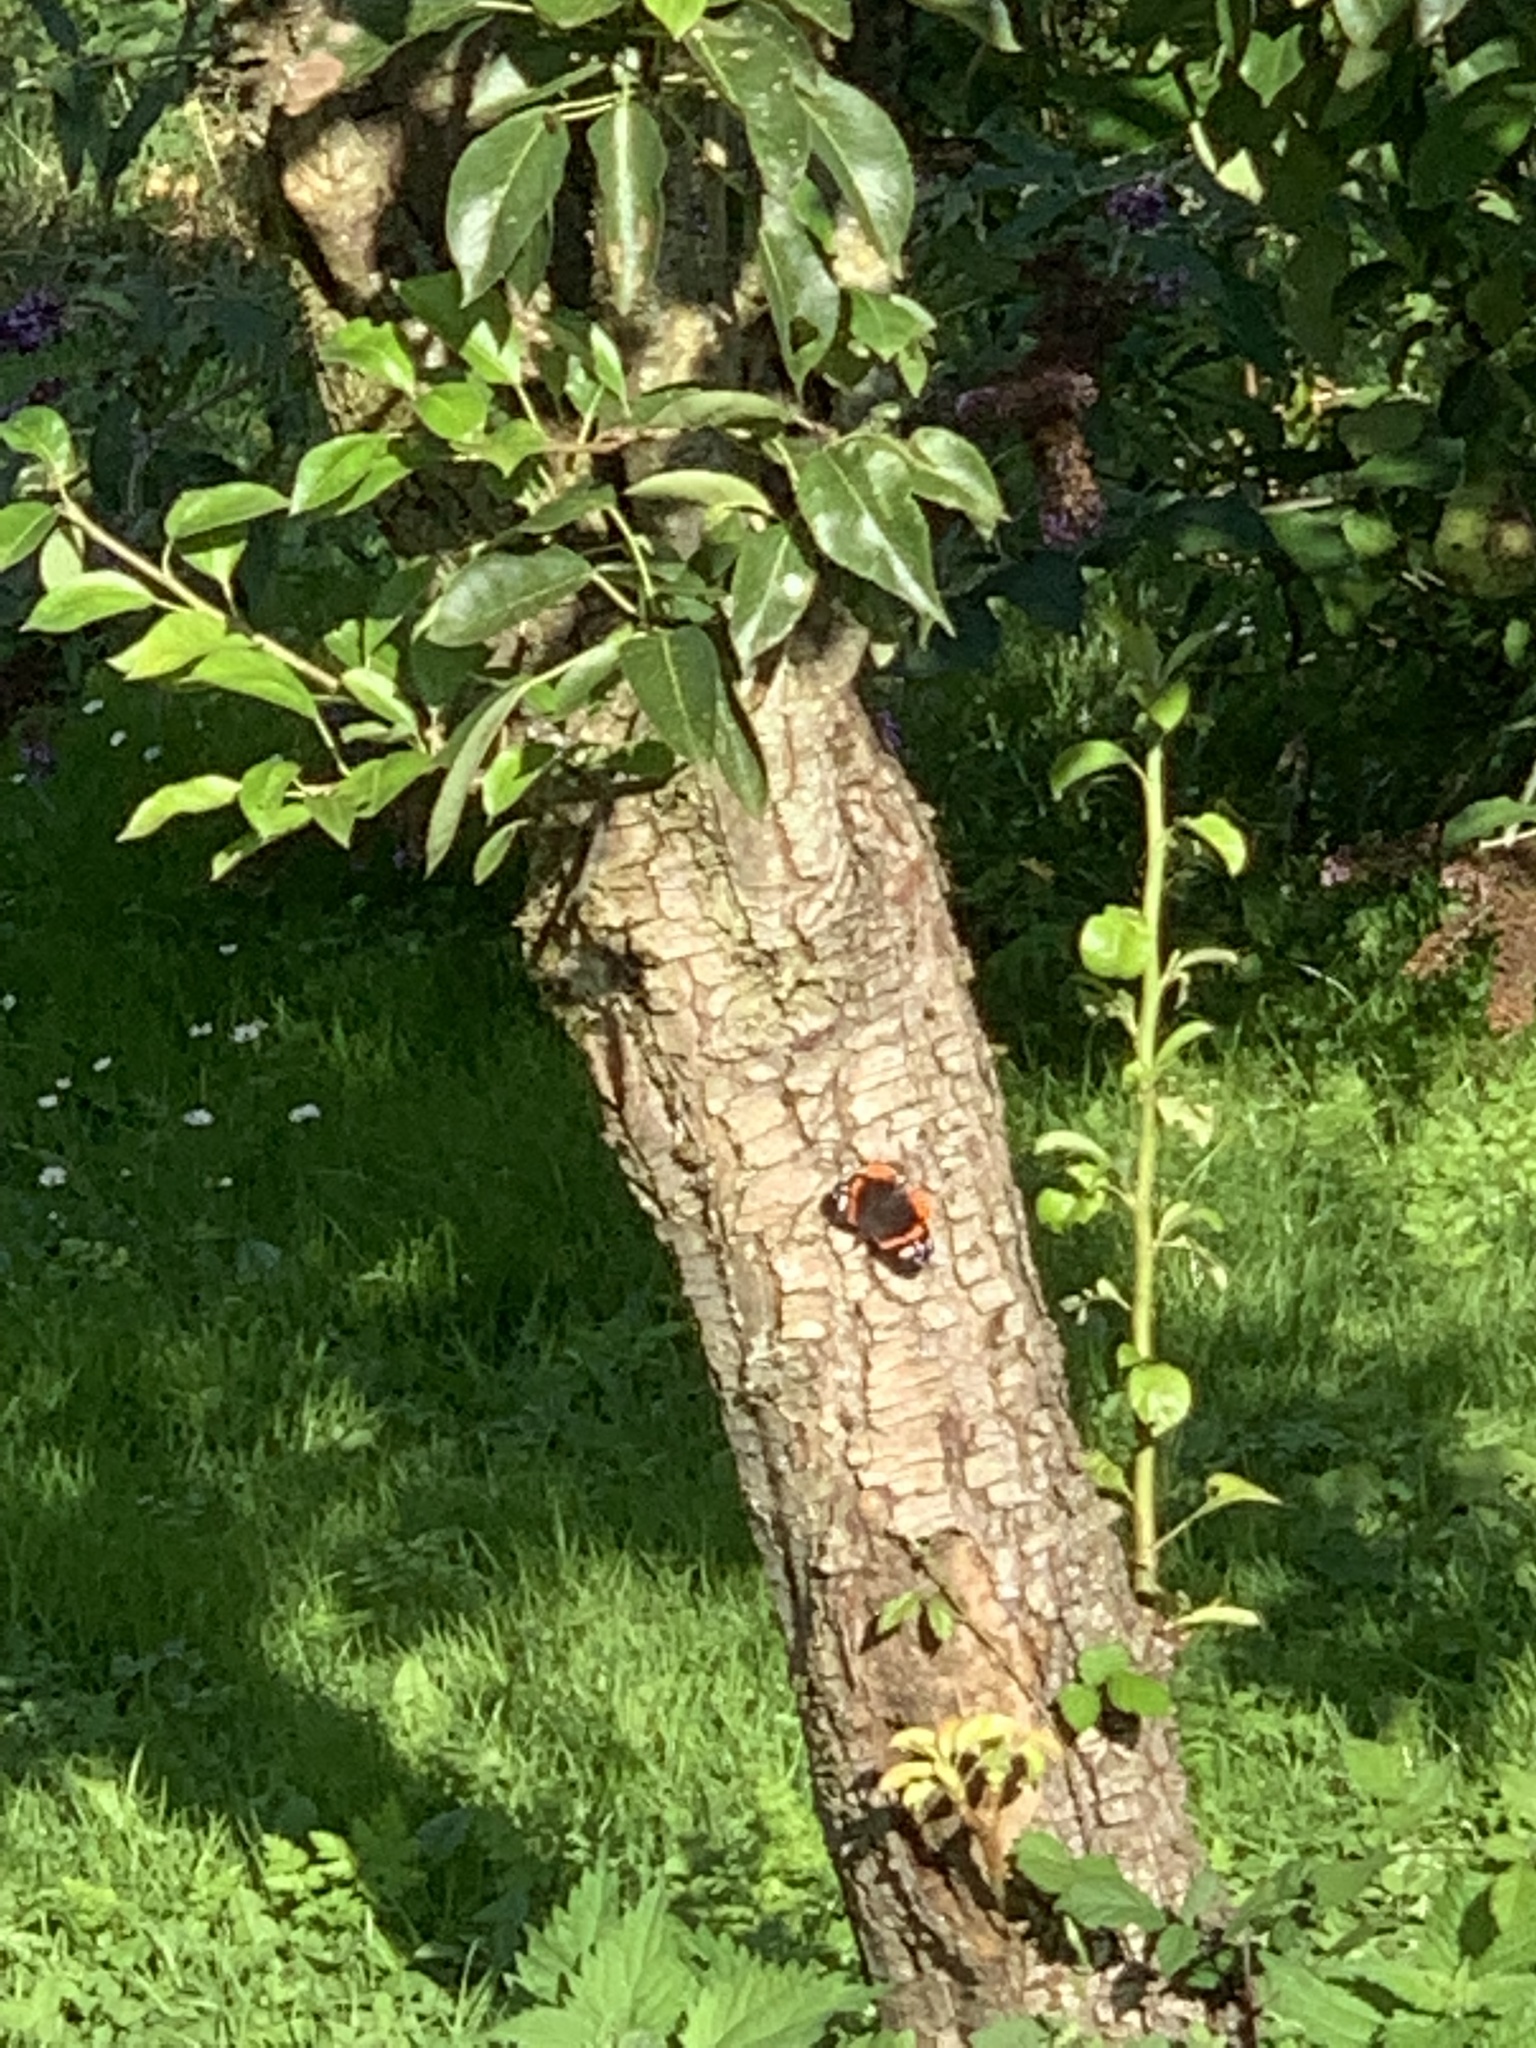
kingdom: Animalia
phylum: Arthropoda
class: Insecta
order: Lepidoptera
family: Nymphalidae
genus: Vanessa
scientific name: Vanessa atalanta
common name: Red admiral
